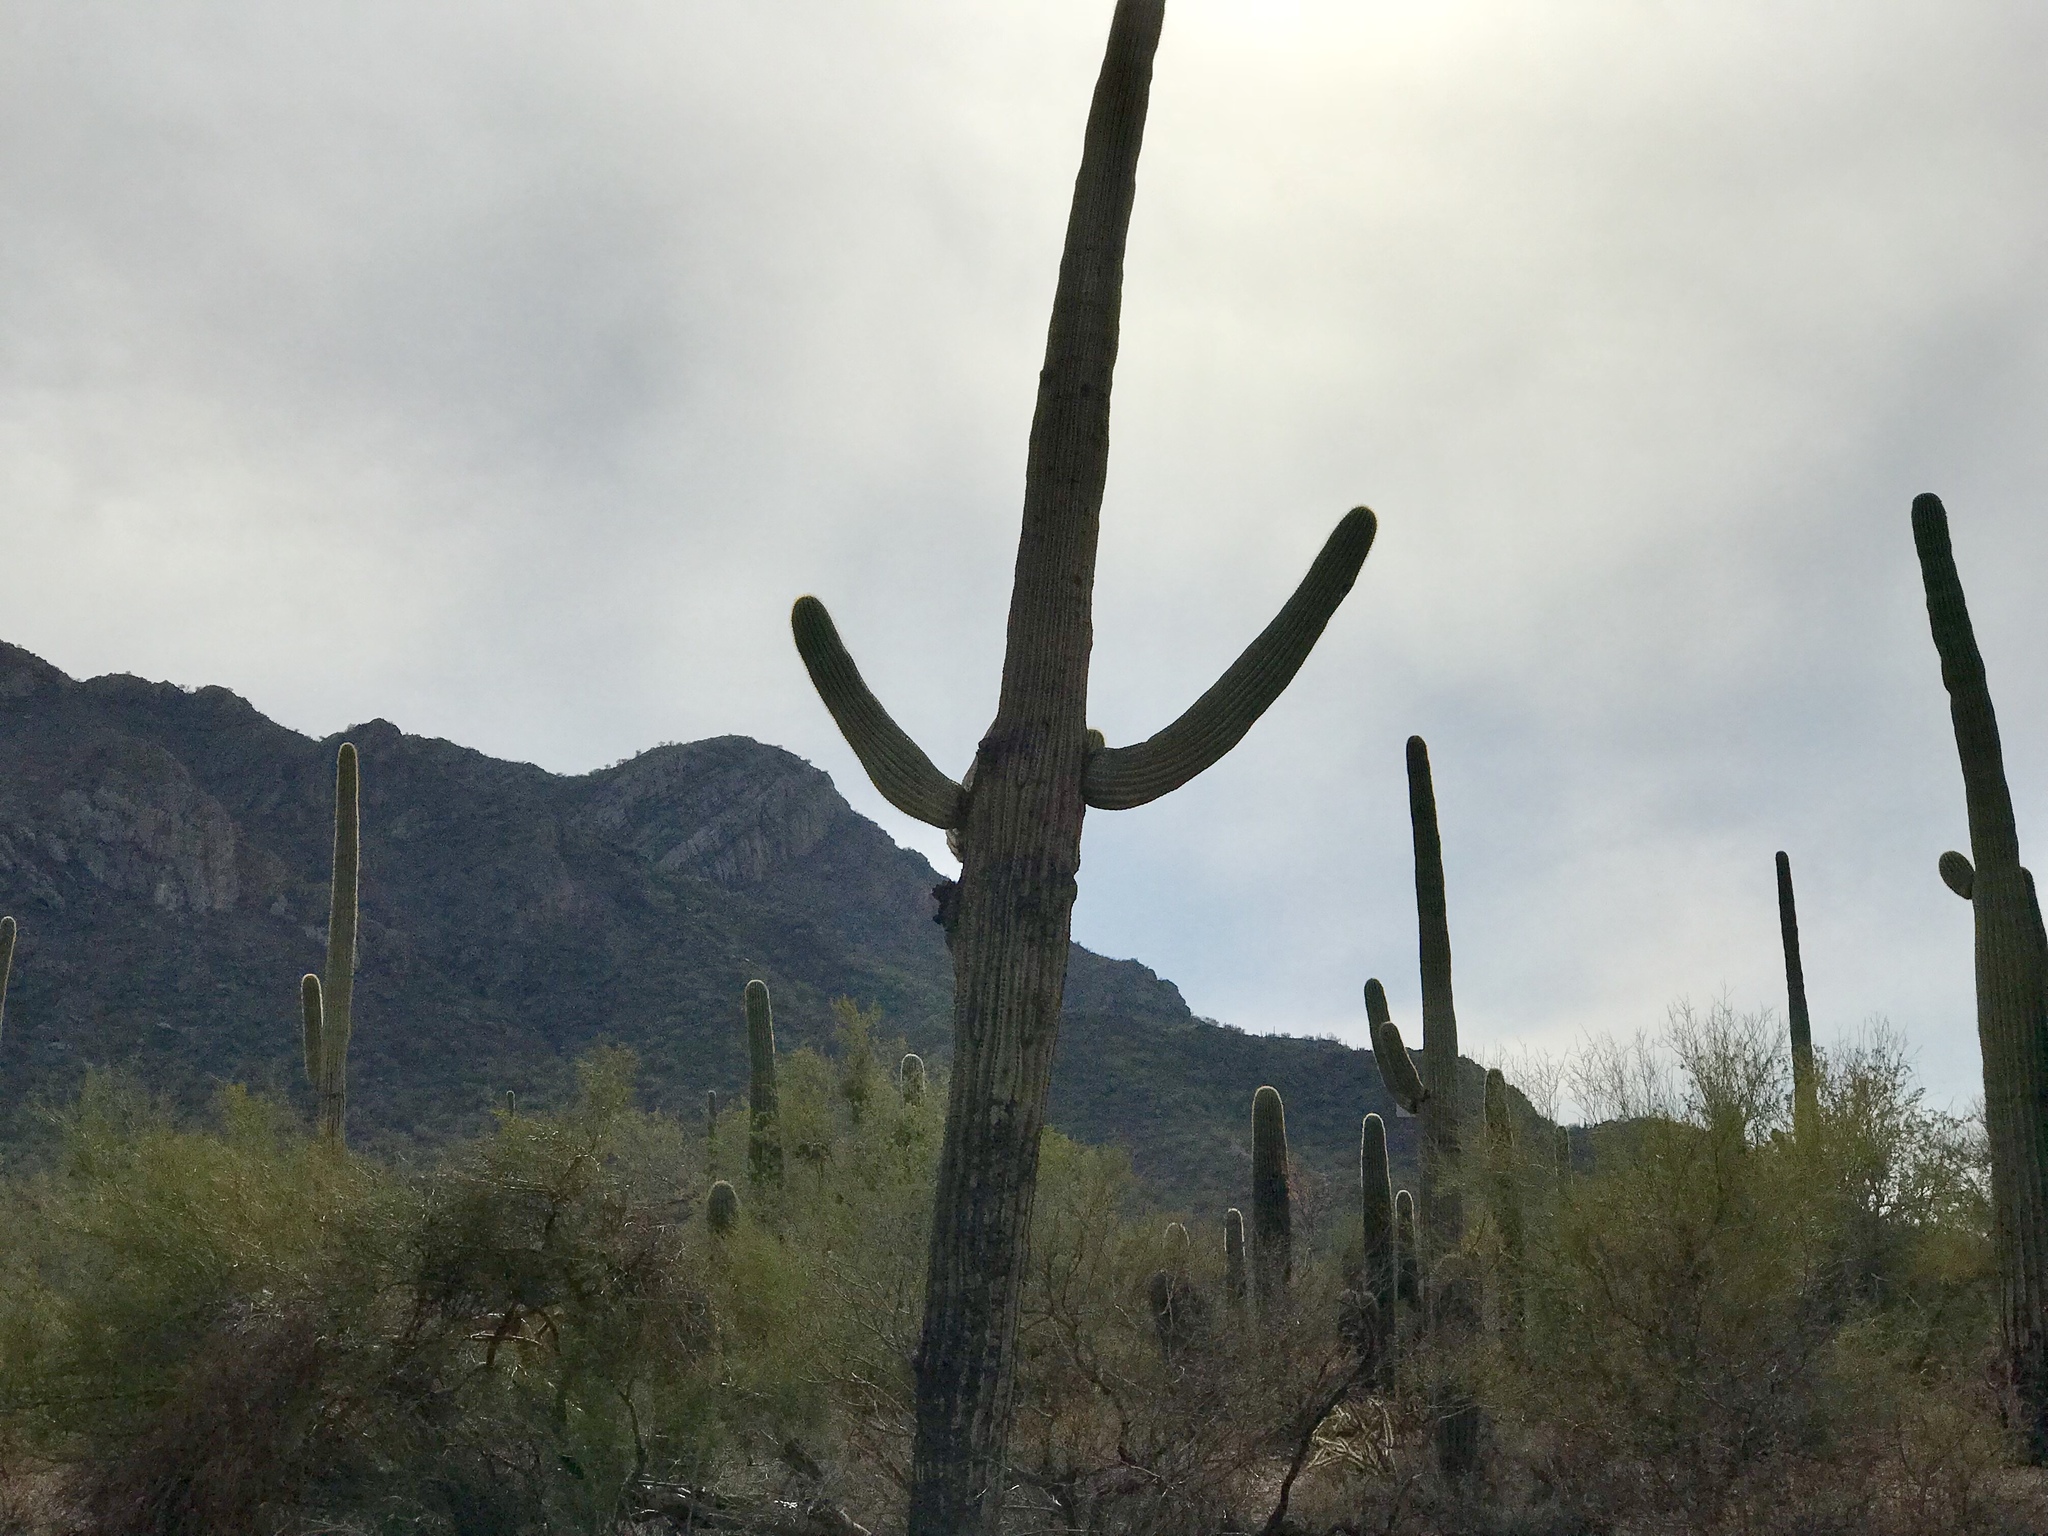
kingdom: Plantae
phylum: Tracheophyta
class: Magnoliopsida
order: Caryophyllales
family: Cactaceae
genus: Carnegiea
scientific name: Carnegiea gigantea
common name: Saguaro
